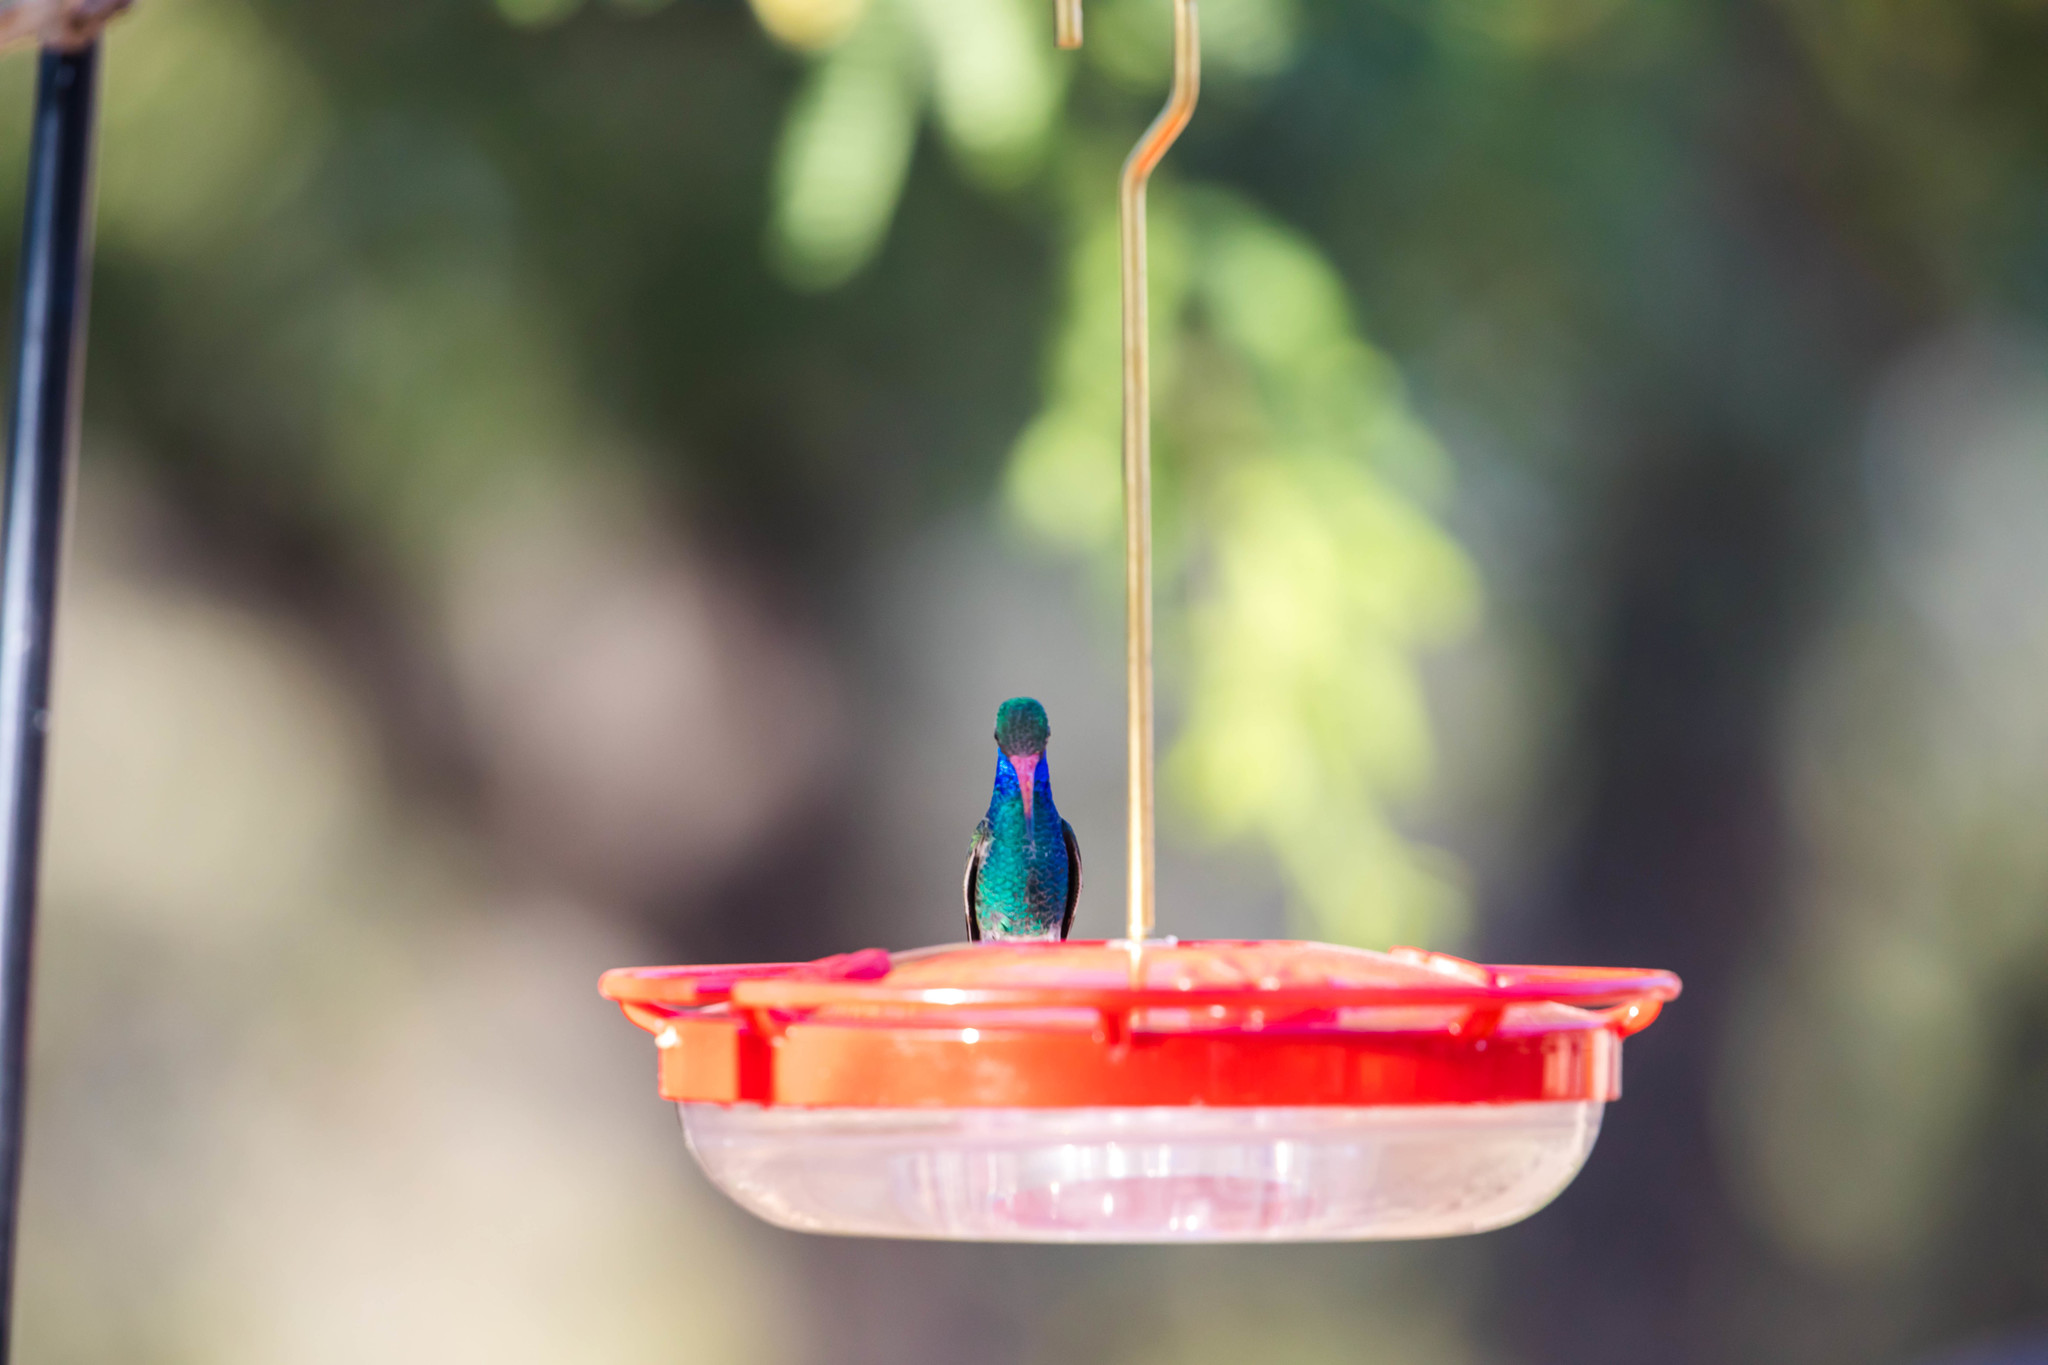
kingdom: Animalia
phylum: Chordata
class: Aves
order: Apodiformes
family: Trochilidae
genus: Cynanthus
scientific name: Cynanthus latirostris
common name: Broad-billed hummingbird
